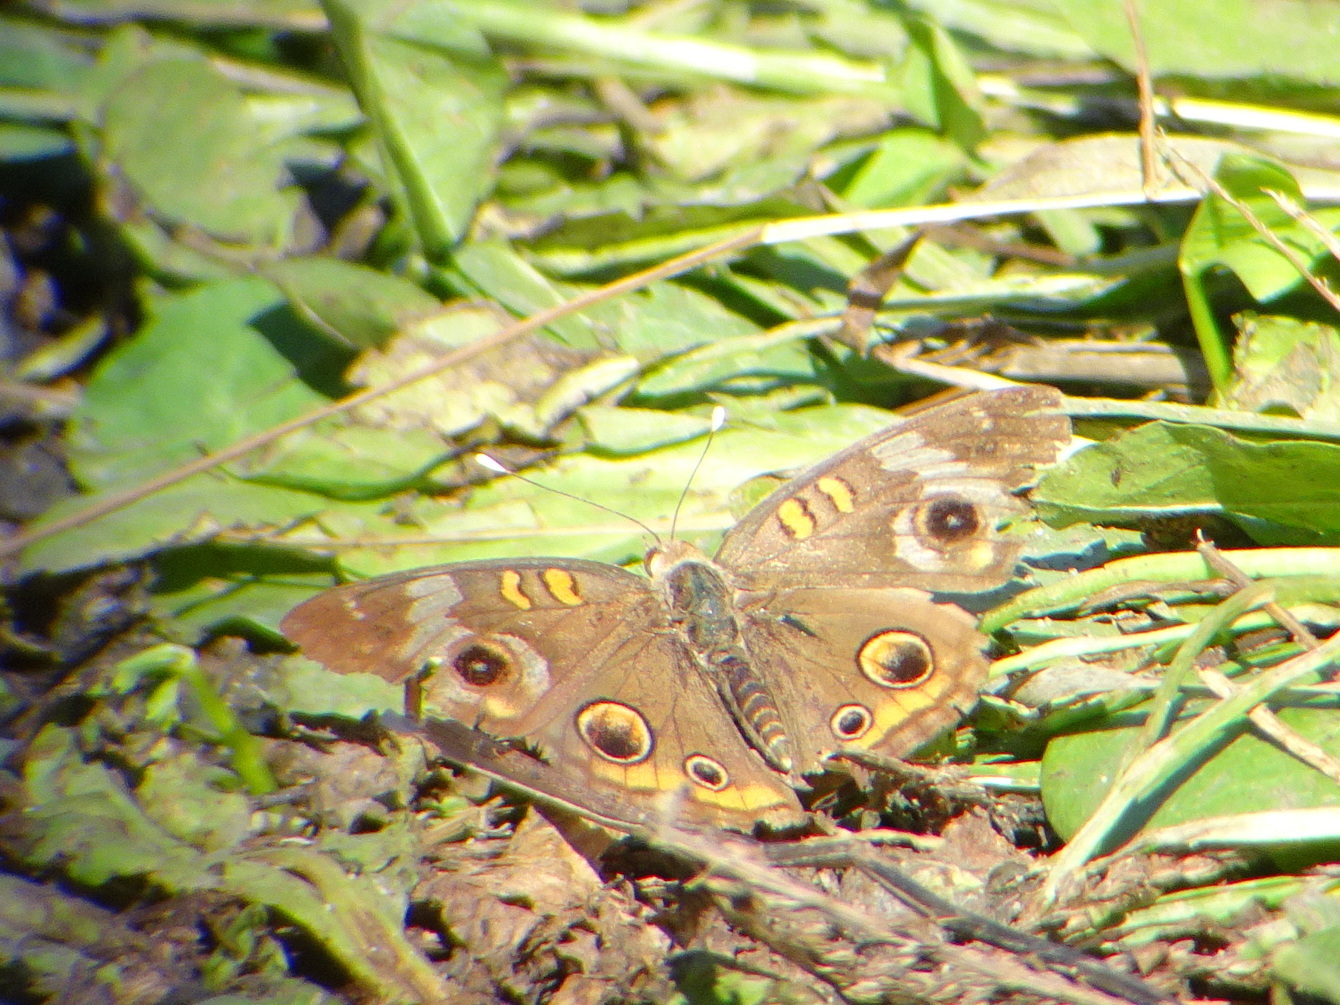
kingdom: Animalia
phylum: Arthropoda
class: Insecta
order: Lepidoptera
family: Nymphalidae
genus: Junonia
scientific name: Junonia coenia
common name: Common buckeye
